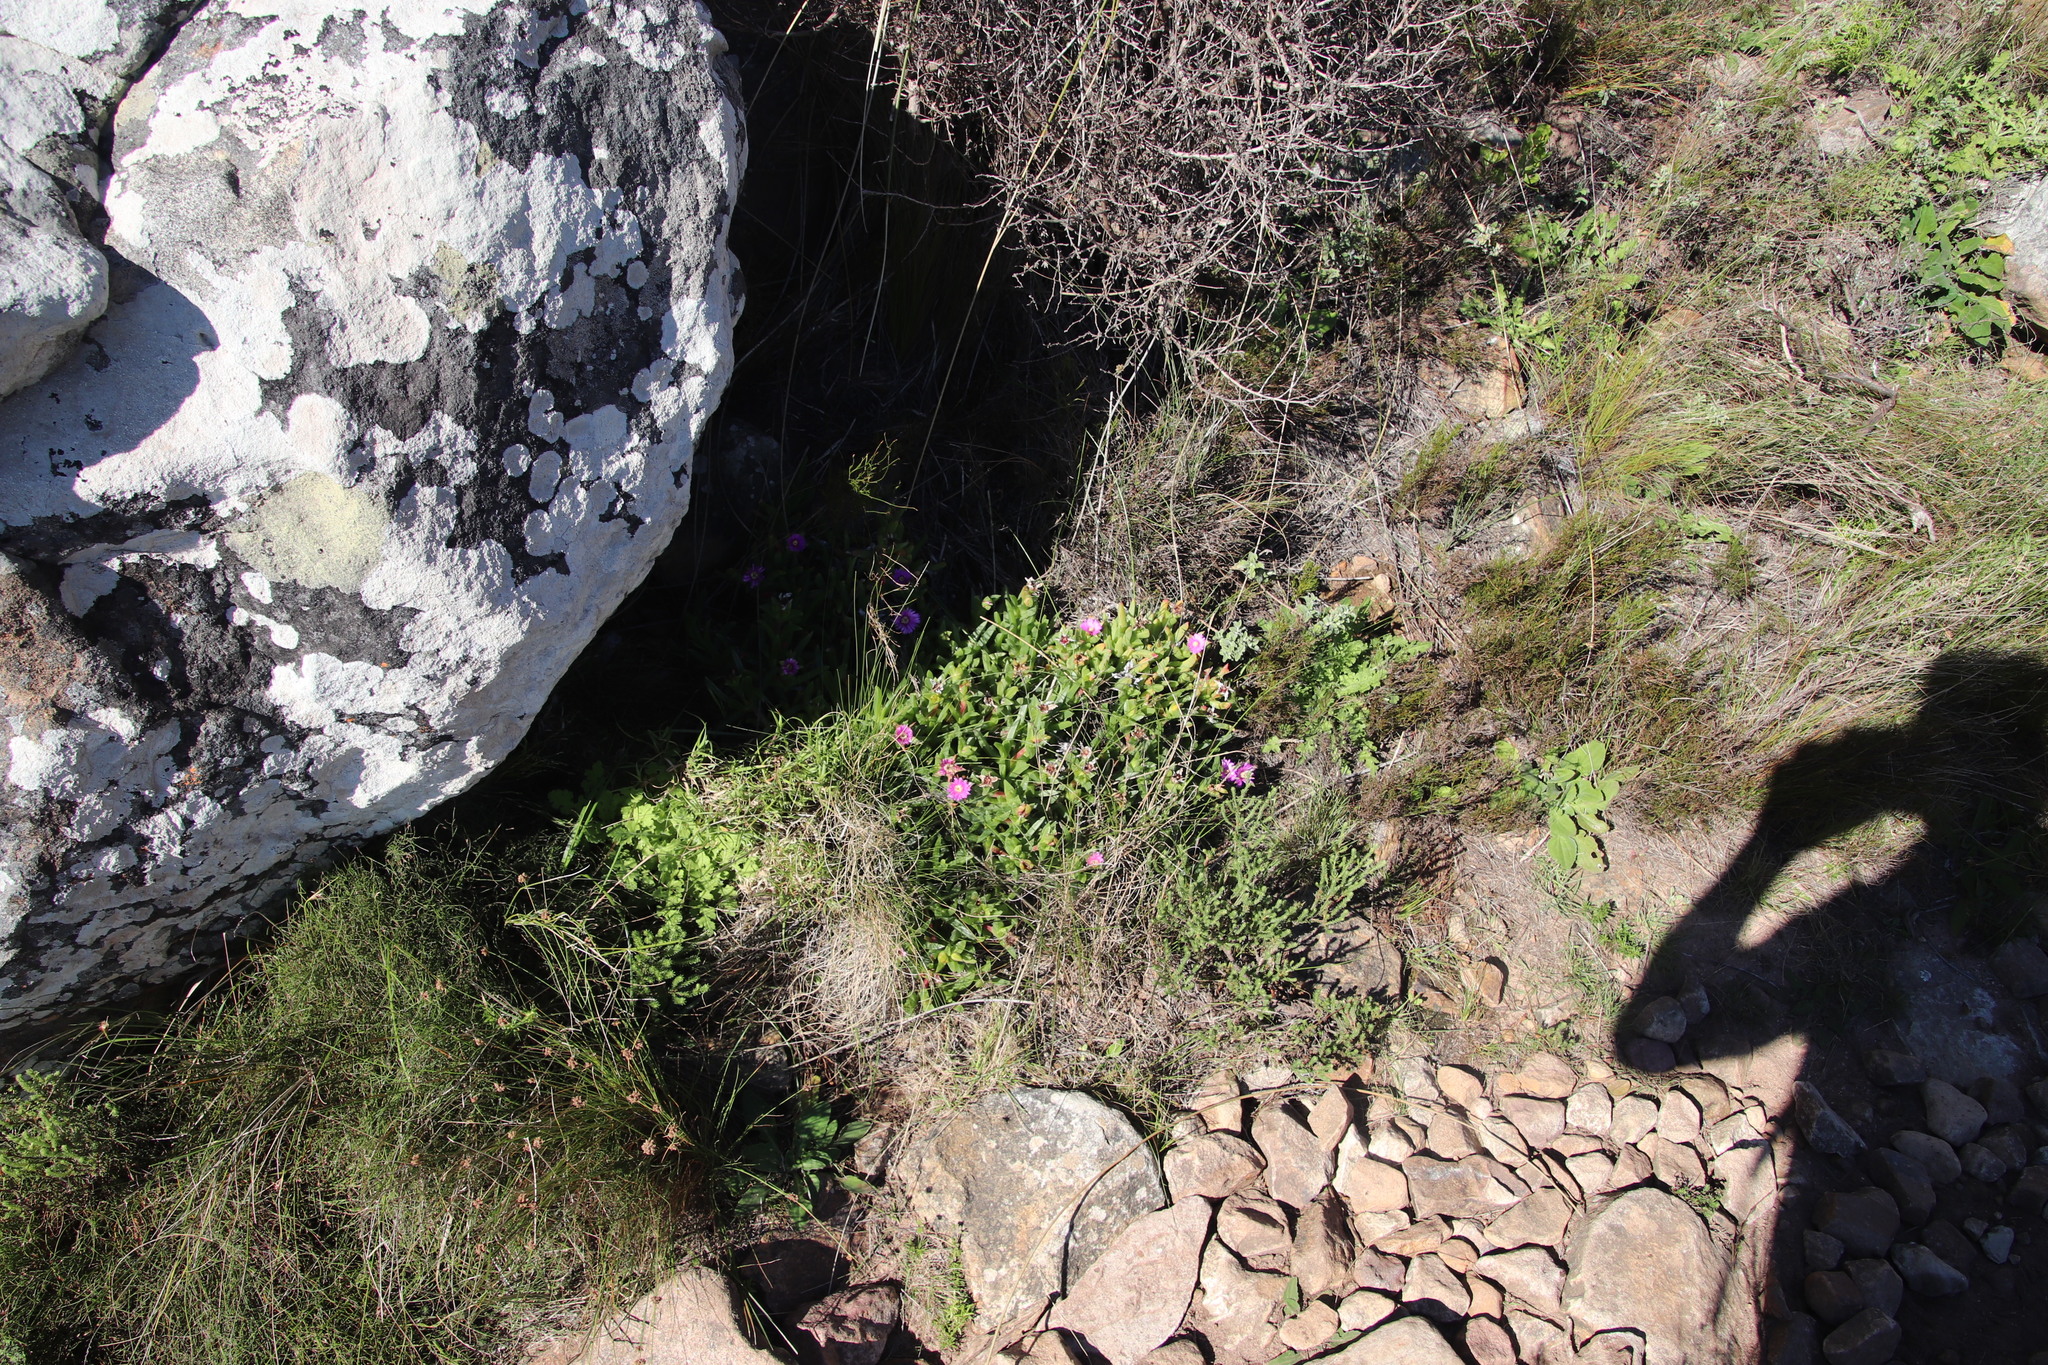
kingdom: Plantae
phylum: Tracheophyta
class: Magnoliopsida
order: Caryophyllales
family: Aizoaceae
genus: Erepsia
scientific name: Erepsia forficata
